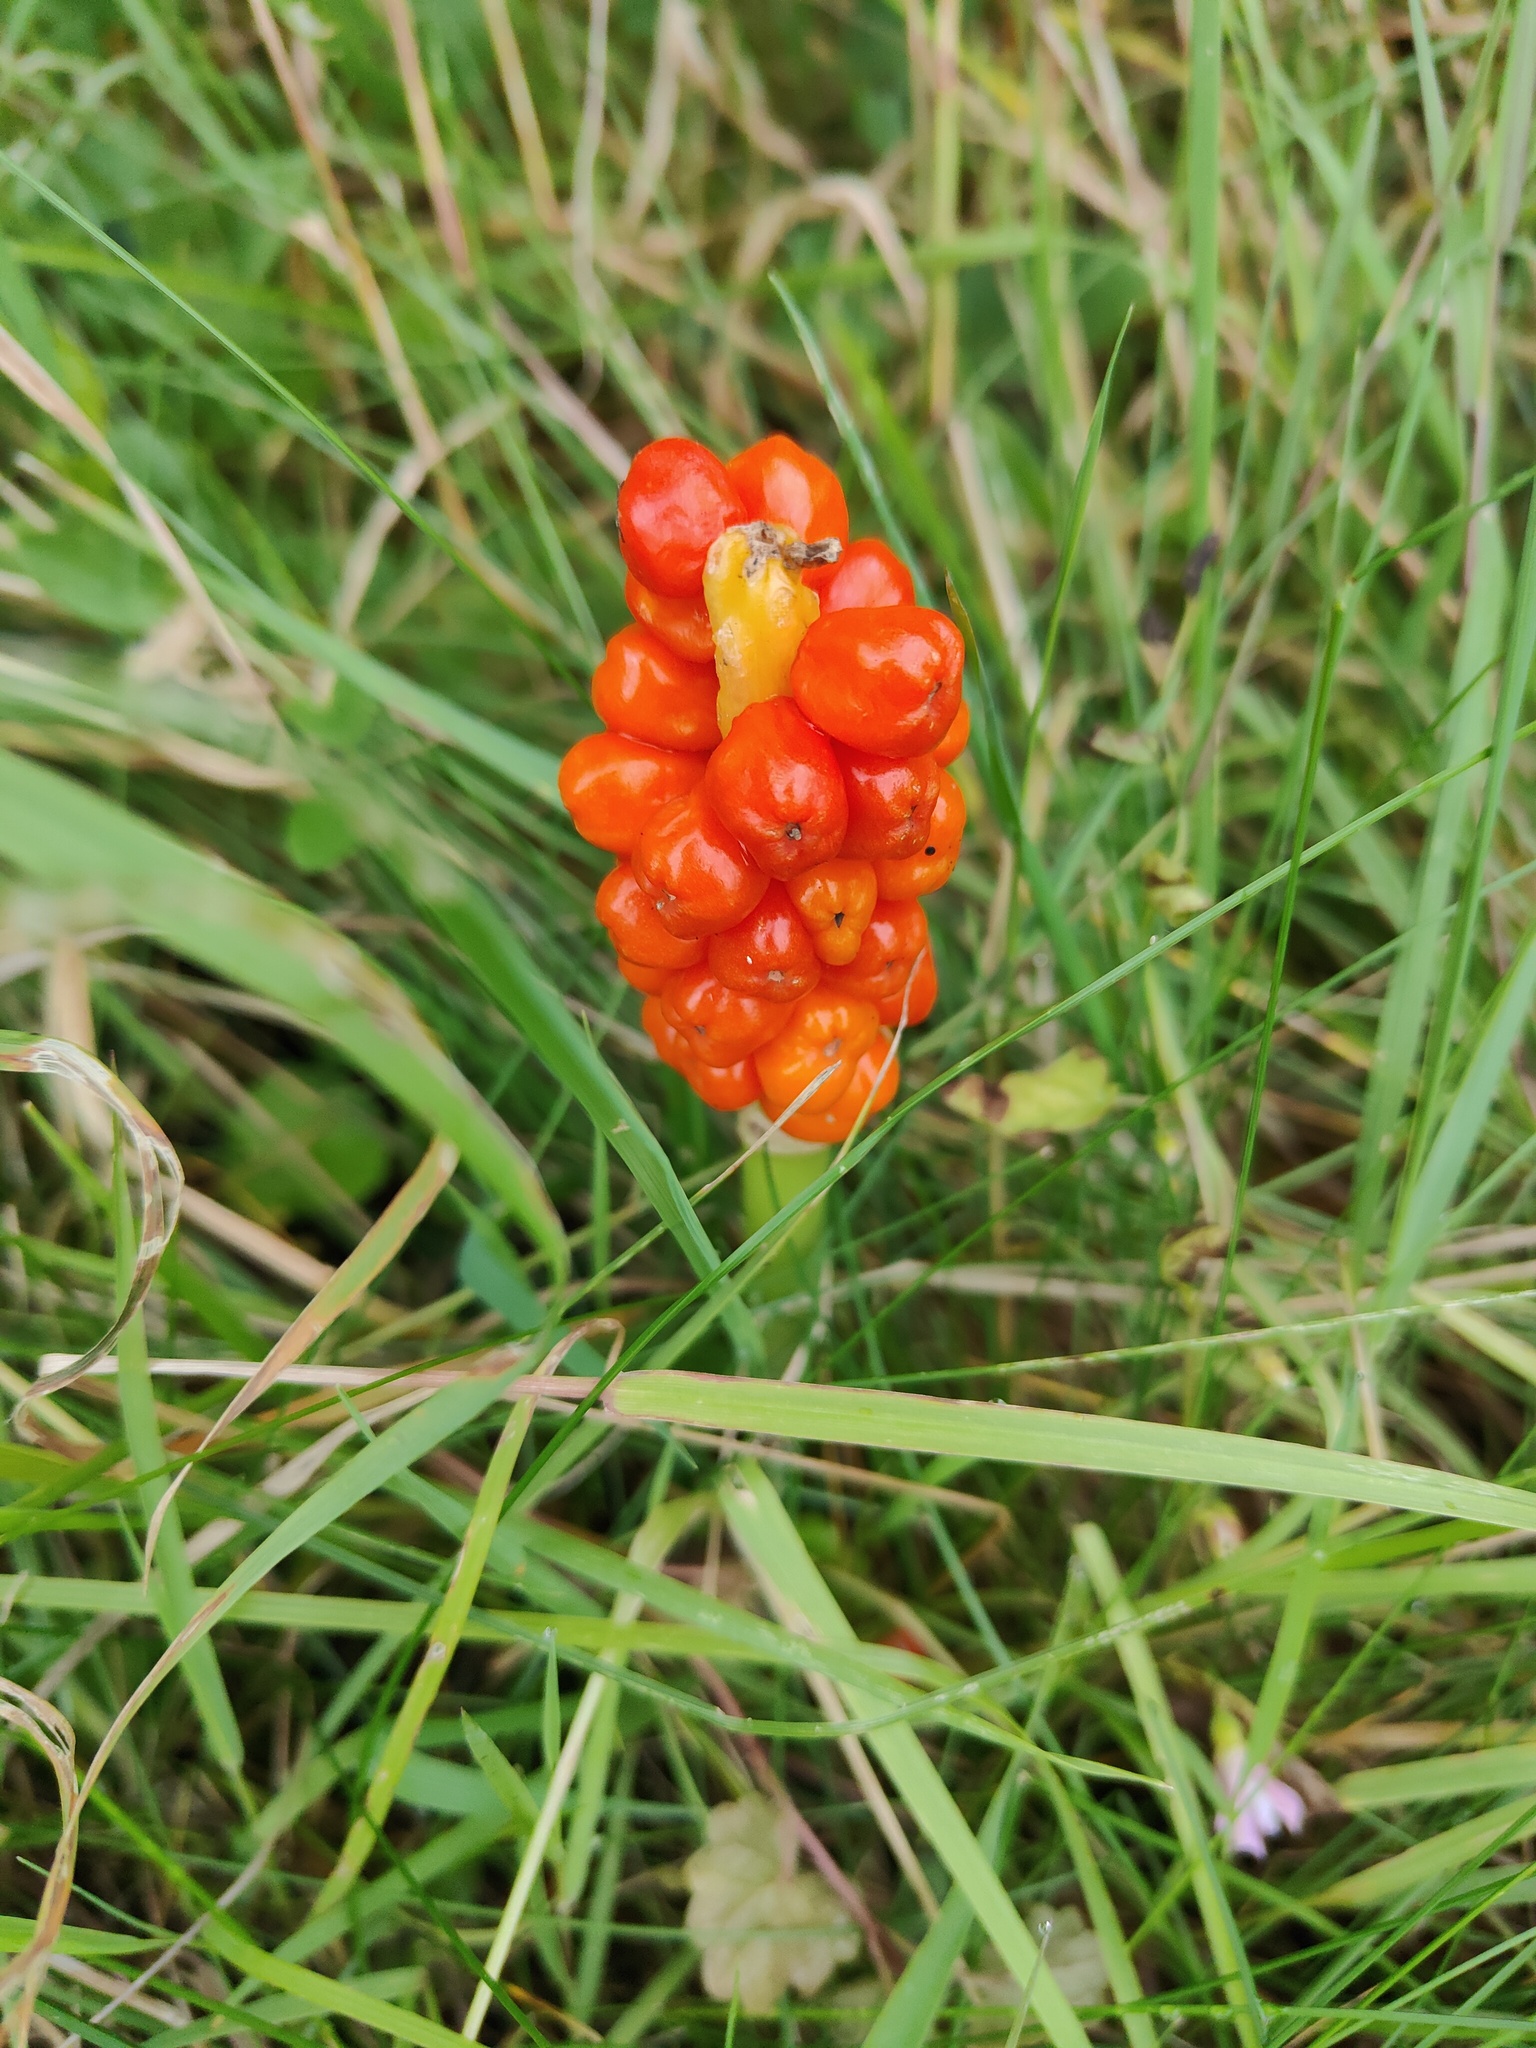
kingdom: Plantae
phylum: Tracheophyta
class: Liliopsida
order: Alismatales
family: Araceae
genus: Arum
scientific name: Arum maculatum
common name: Lords-and-ladies
